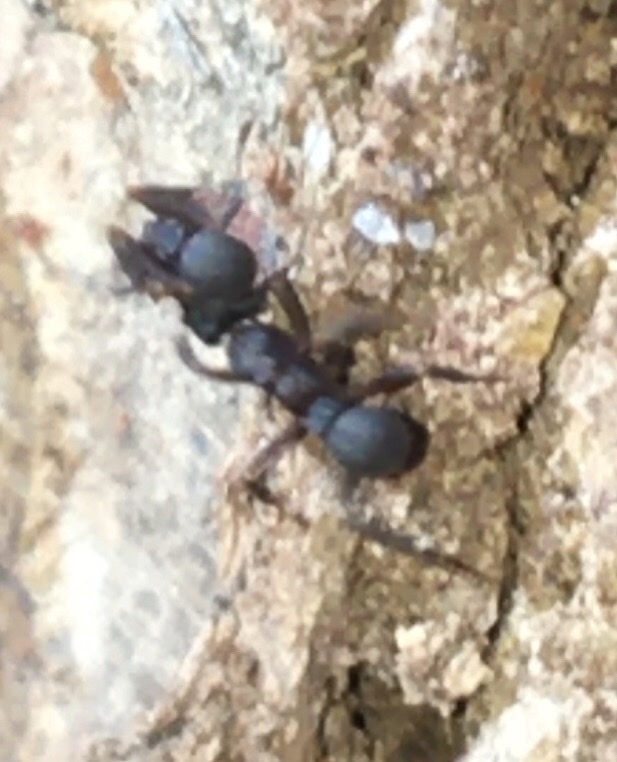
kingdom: Animalia
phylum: Arthropoda
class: Insecta
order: Hymenoptera
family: Formicidae
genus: Cyphomyrmex
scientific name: Cyphomyrmex rimosus
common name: Rimose fungus ant
